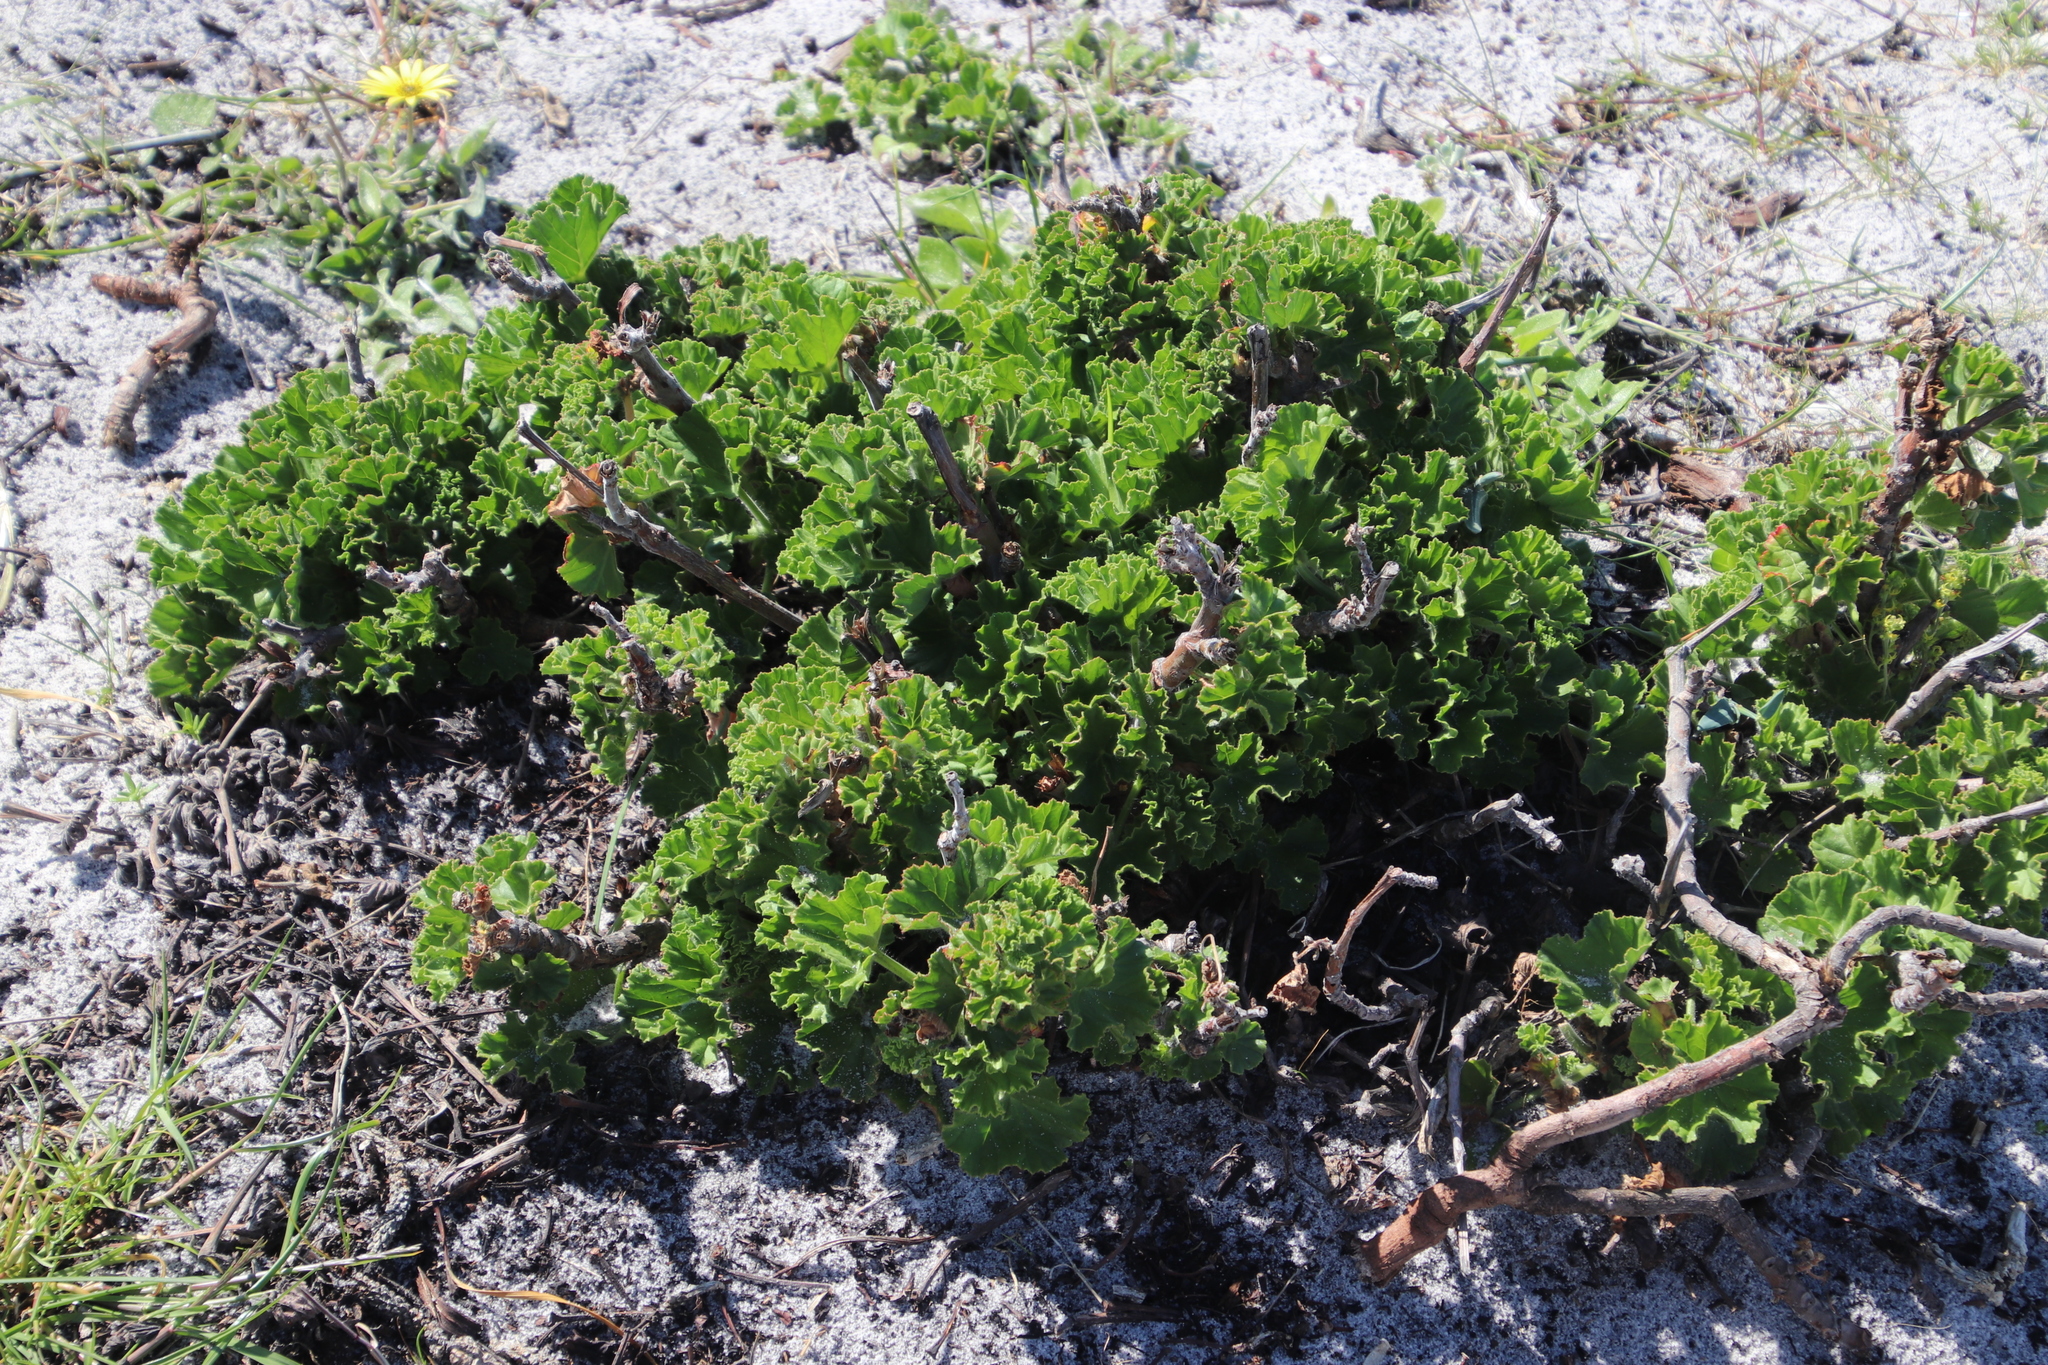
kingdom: Plantae
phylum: Tracheophyta
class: Magnoliopsida
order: Geraniales
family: Geraniaceae
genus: Pelargonium
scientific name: Pelargonium cucullatum
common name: Tree pelargonium
